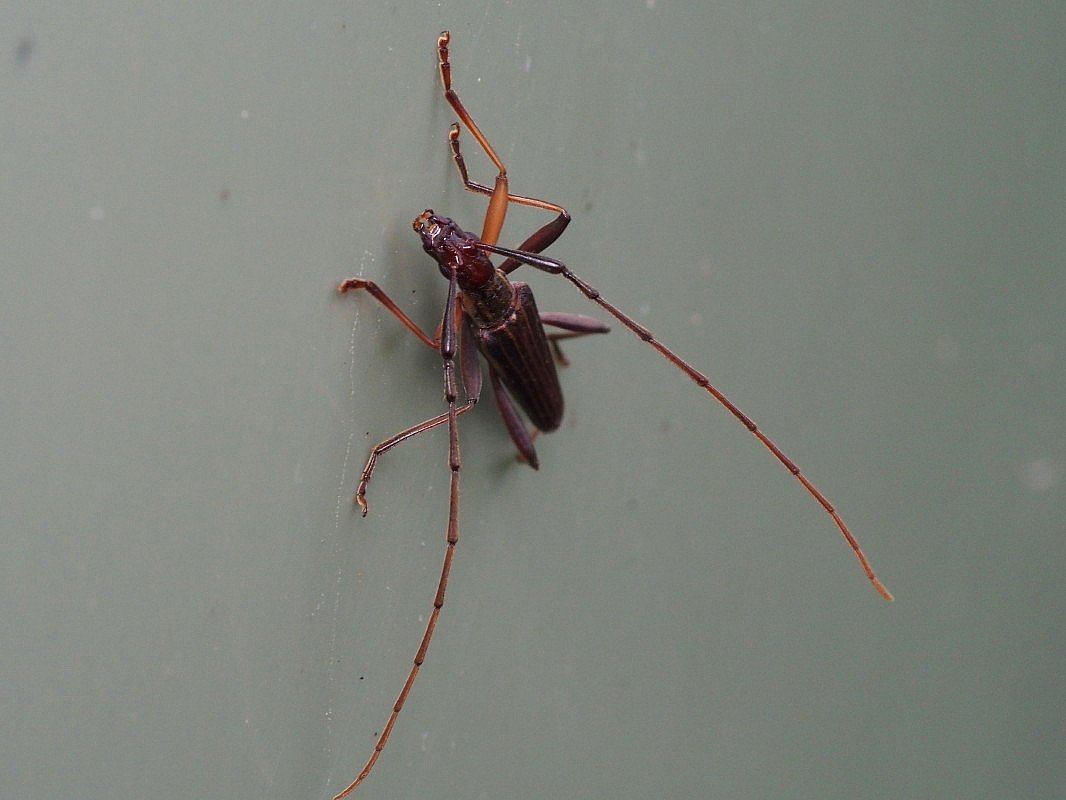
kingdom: Animalia
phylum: Arthropoda
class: Insecta
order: Coleoptera
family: Cerambycidae
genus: Stenopotes
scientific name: Stenopotes pallidus
